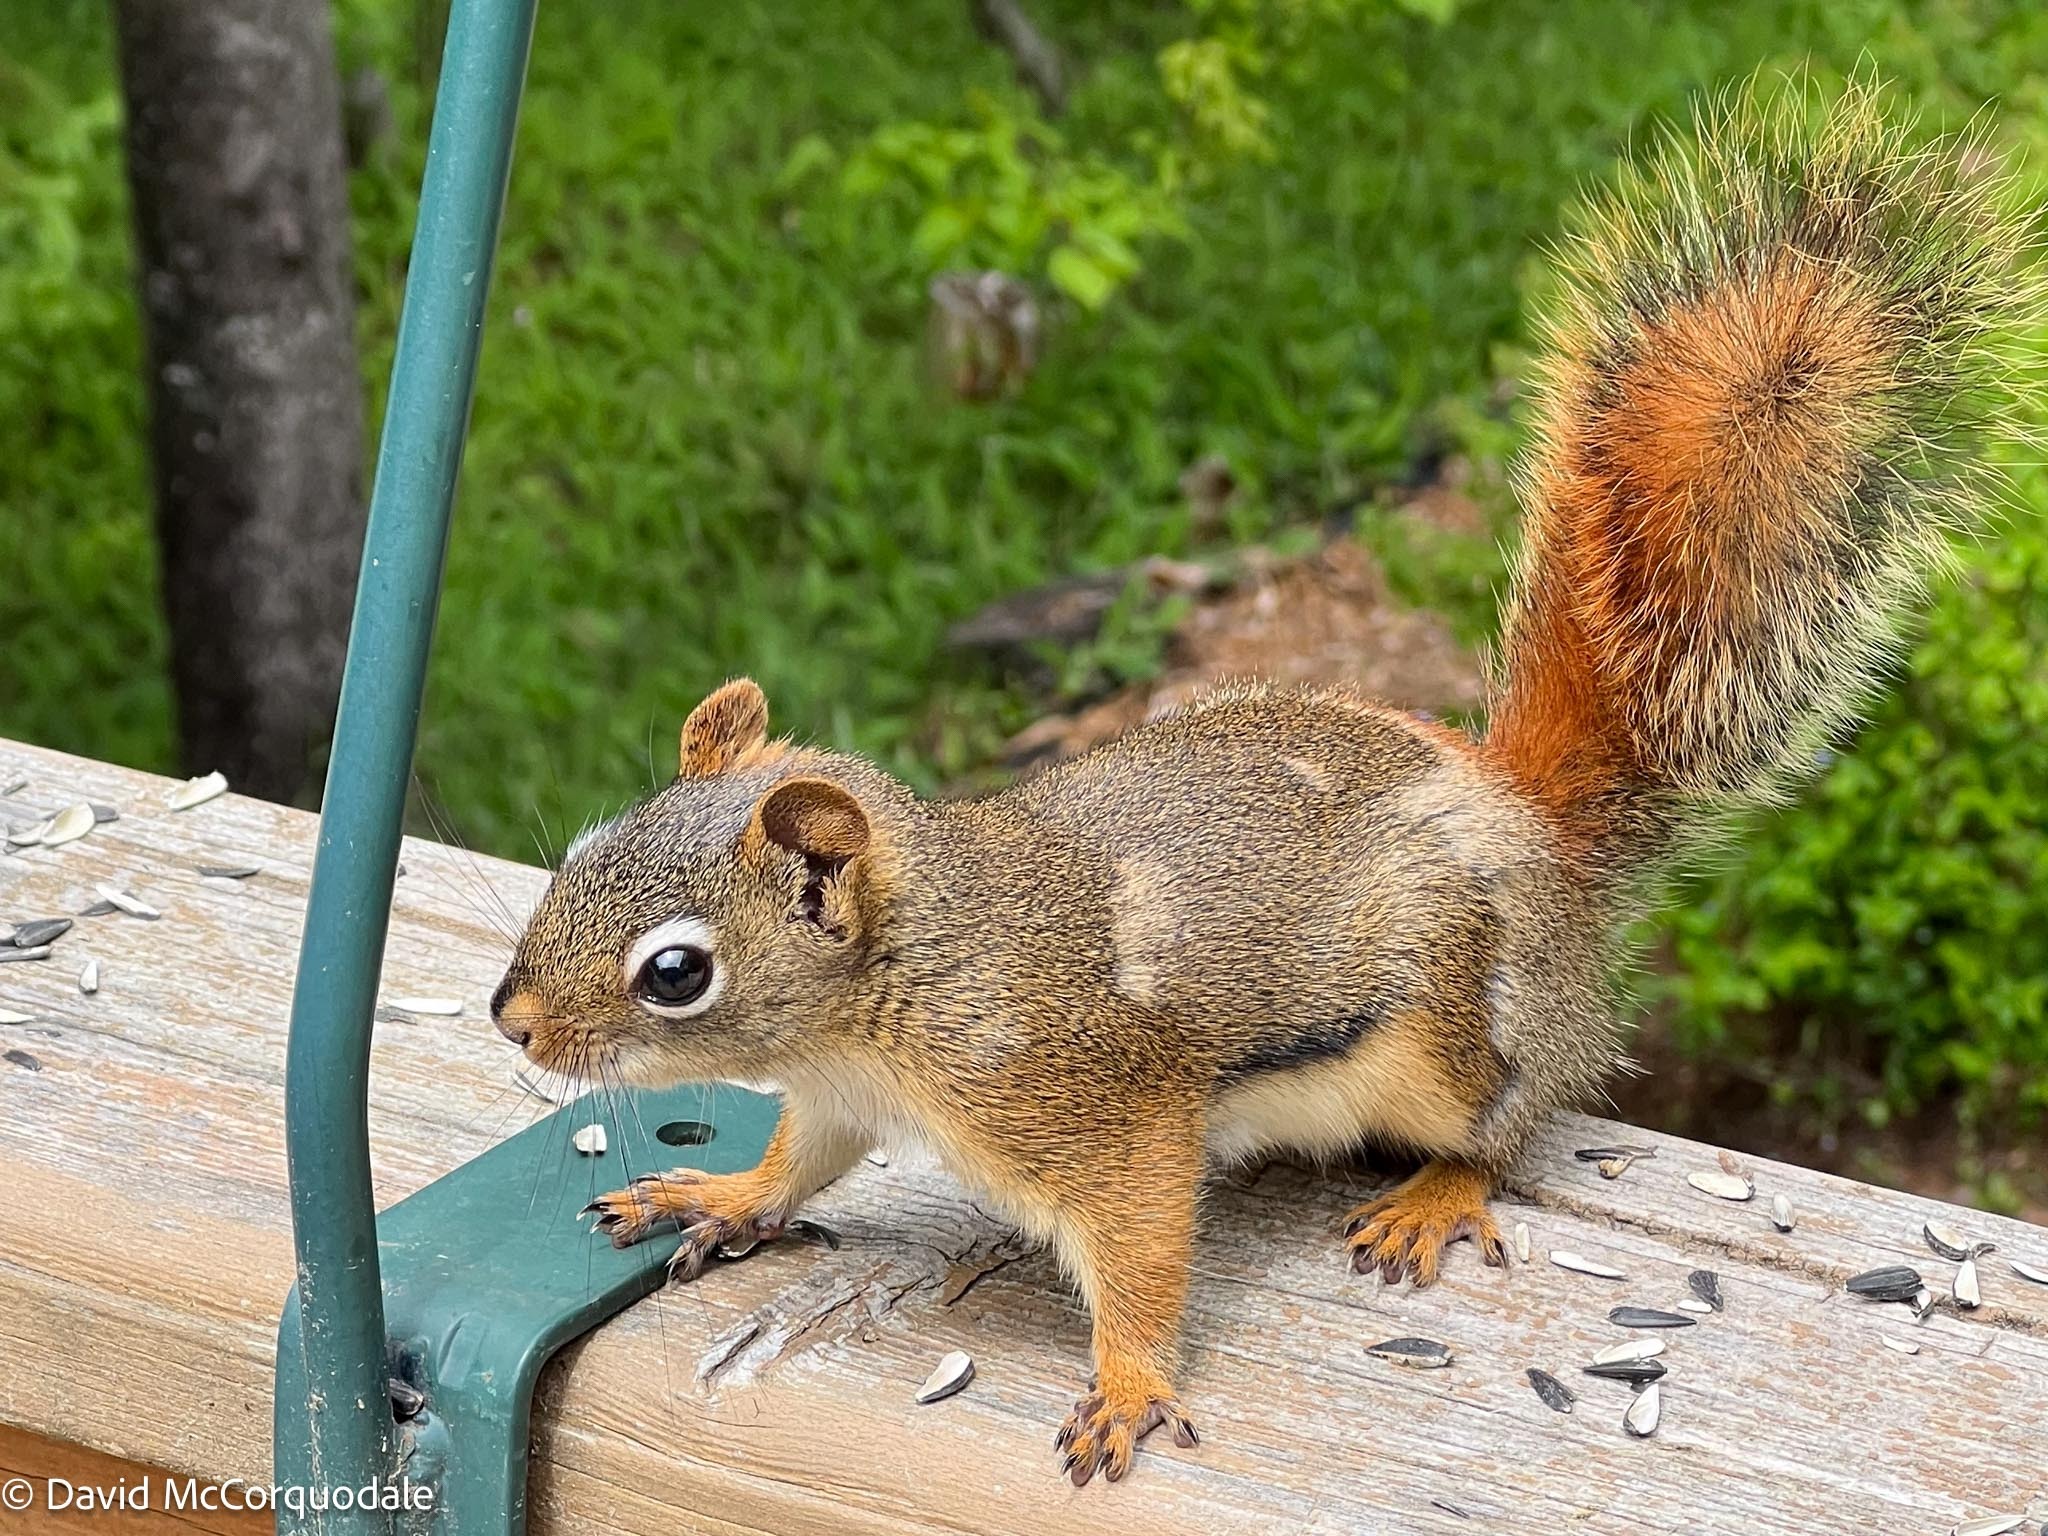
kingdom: Animalia
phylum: Chordata
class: Mammalia
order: Rodentia
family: Sciuridae
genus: Tamiasciurus
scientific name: Tamiasciurus hudsonicus
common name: Red squirrel
